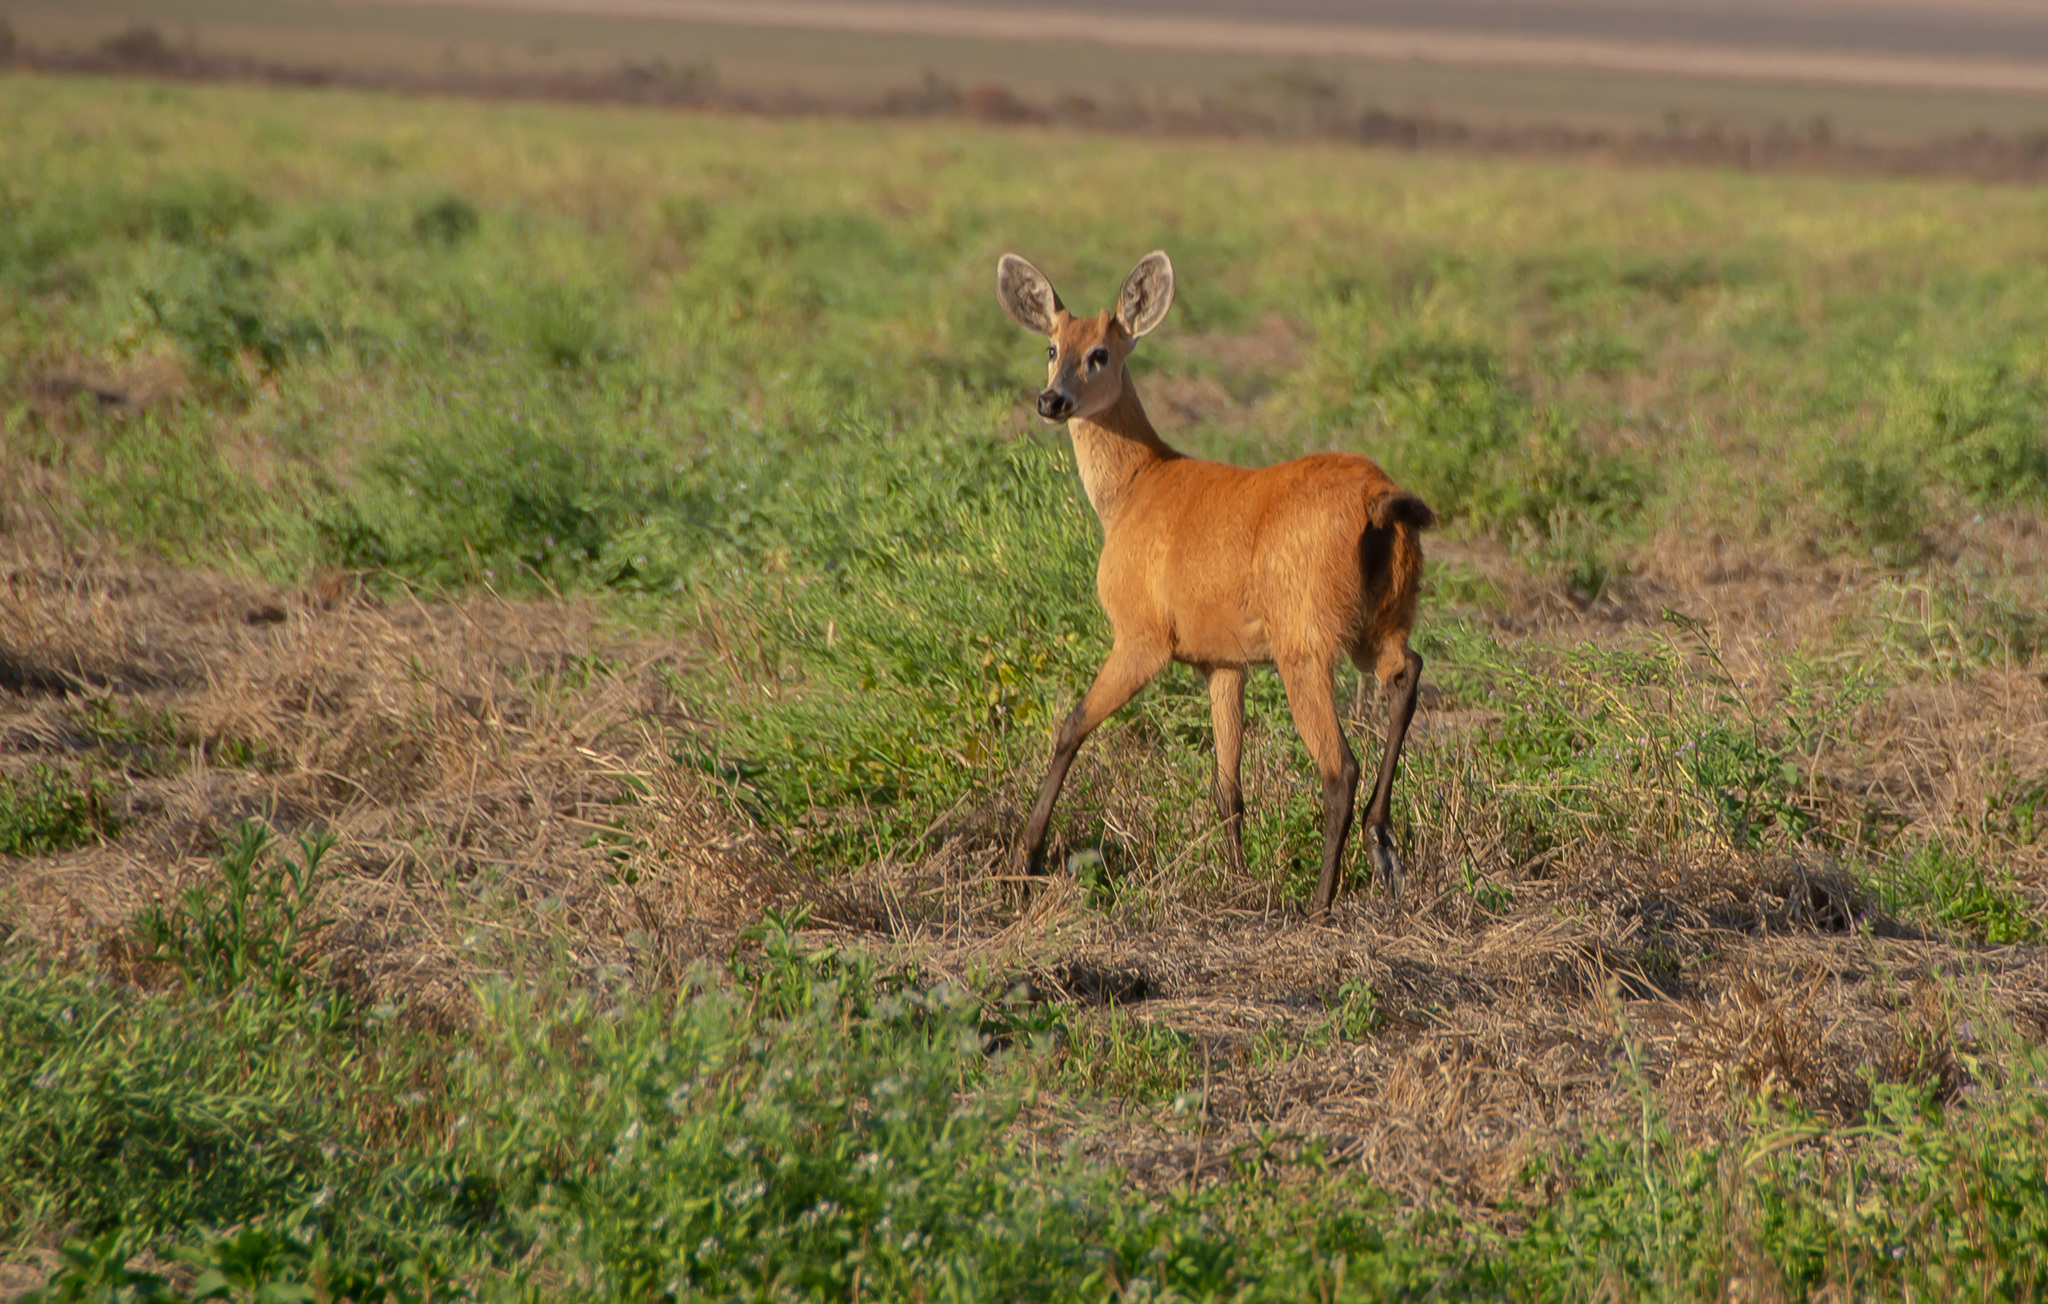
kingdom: Animalia
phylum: Chordata
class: Mammalia
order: Artiodactyla
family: Cervidae
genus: Blastocerus
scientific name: Blastocerus dichotomus
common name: Marsh deer
